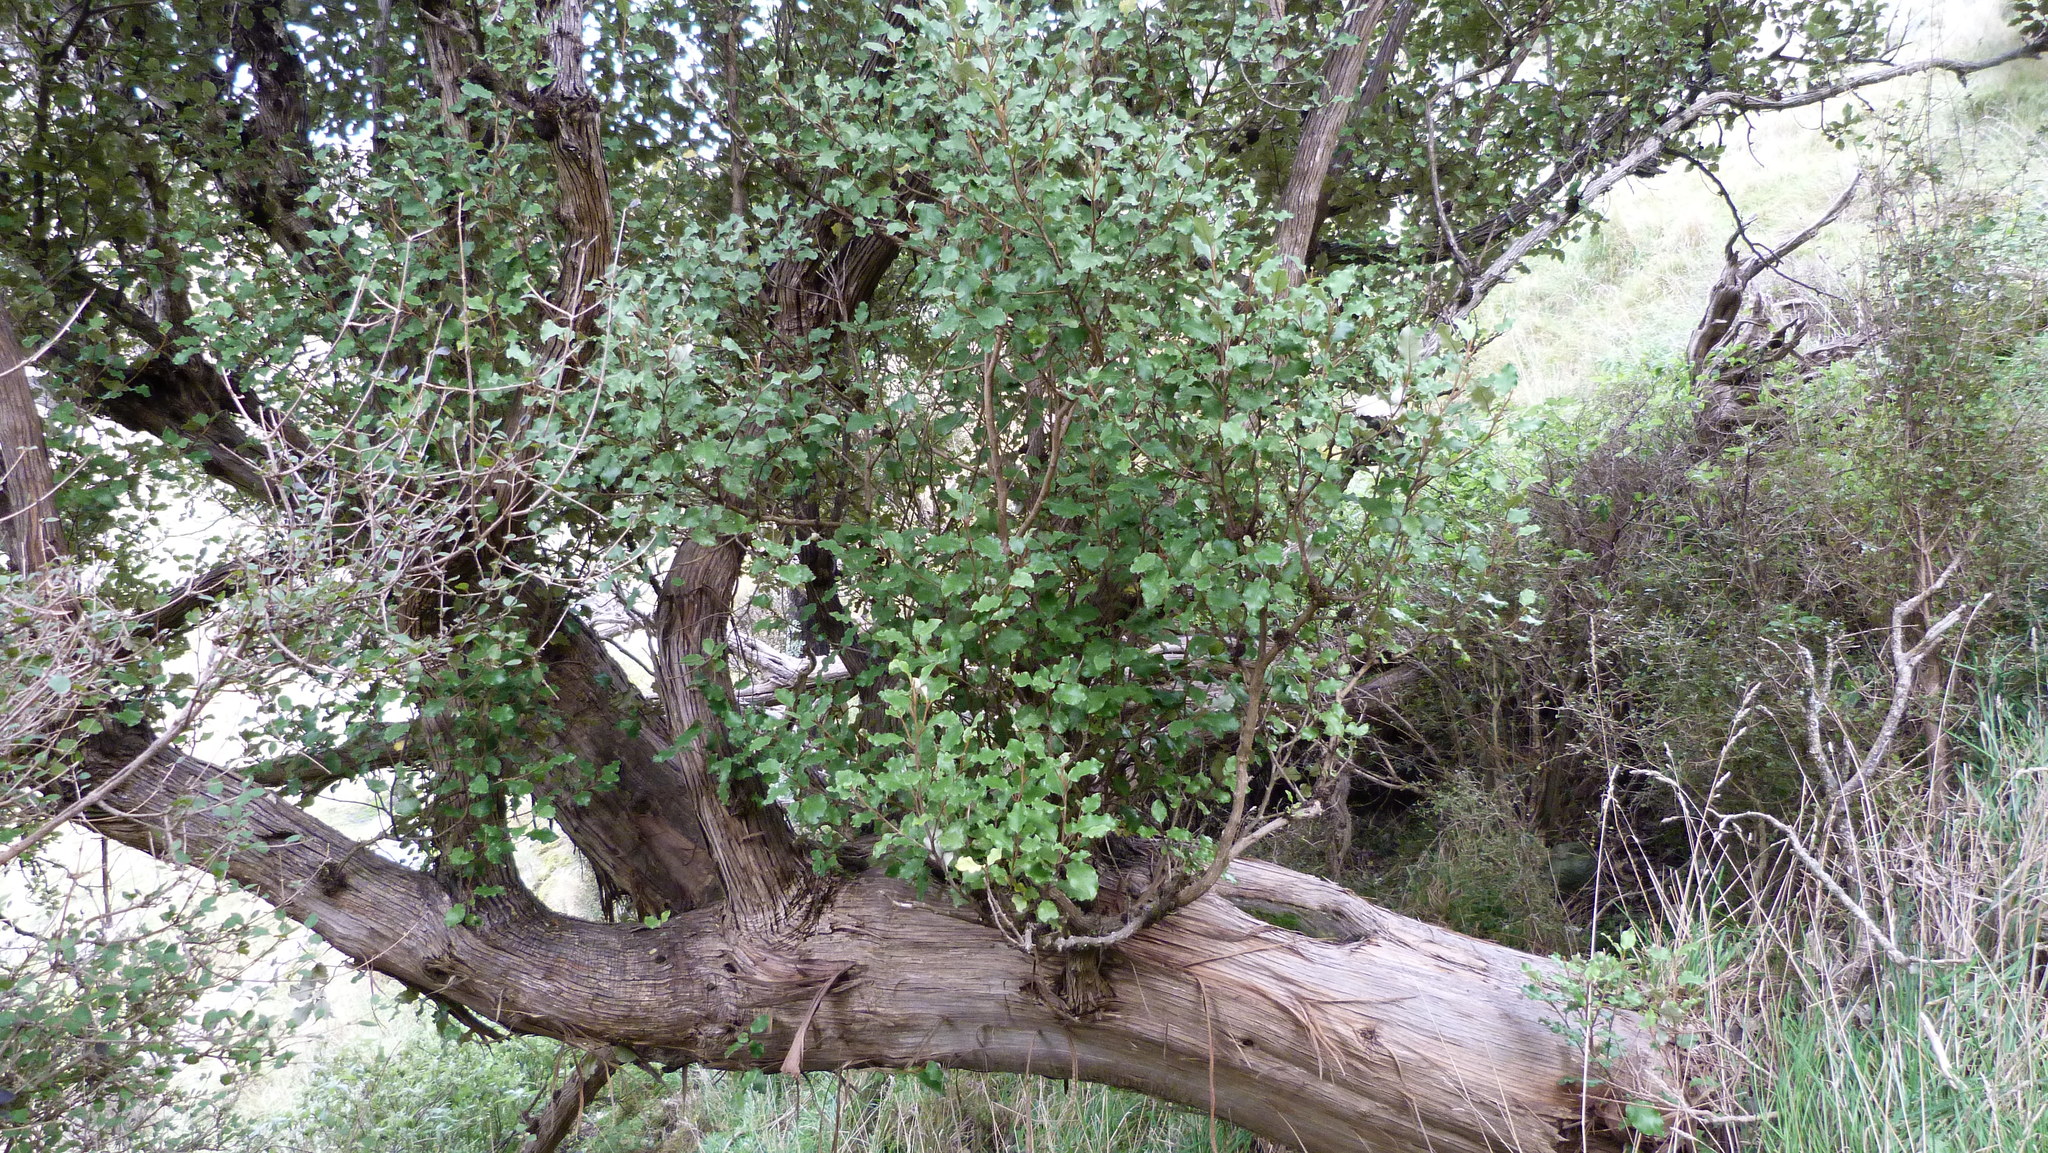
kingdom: Plantae
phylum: Tracheophyta
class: Magnoliopsida
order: Asterales
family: Asteraceae
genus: Olearia
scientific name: Olearia paniculata
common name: Akiraho
